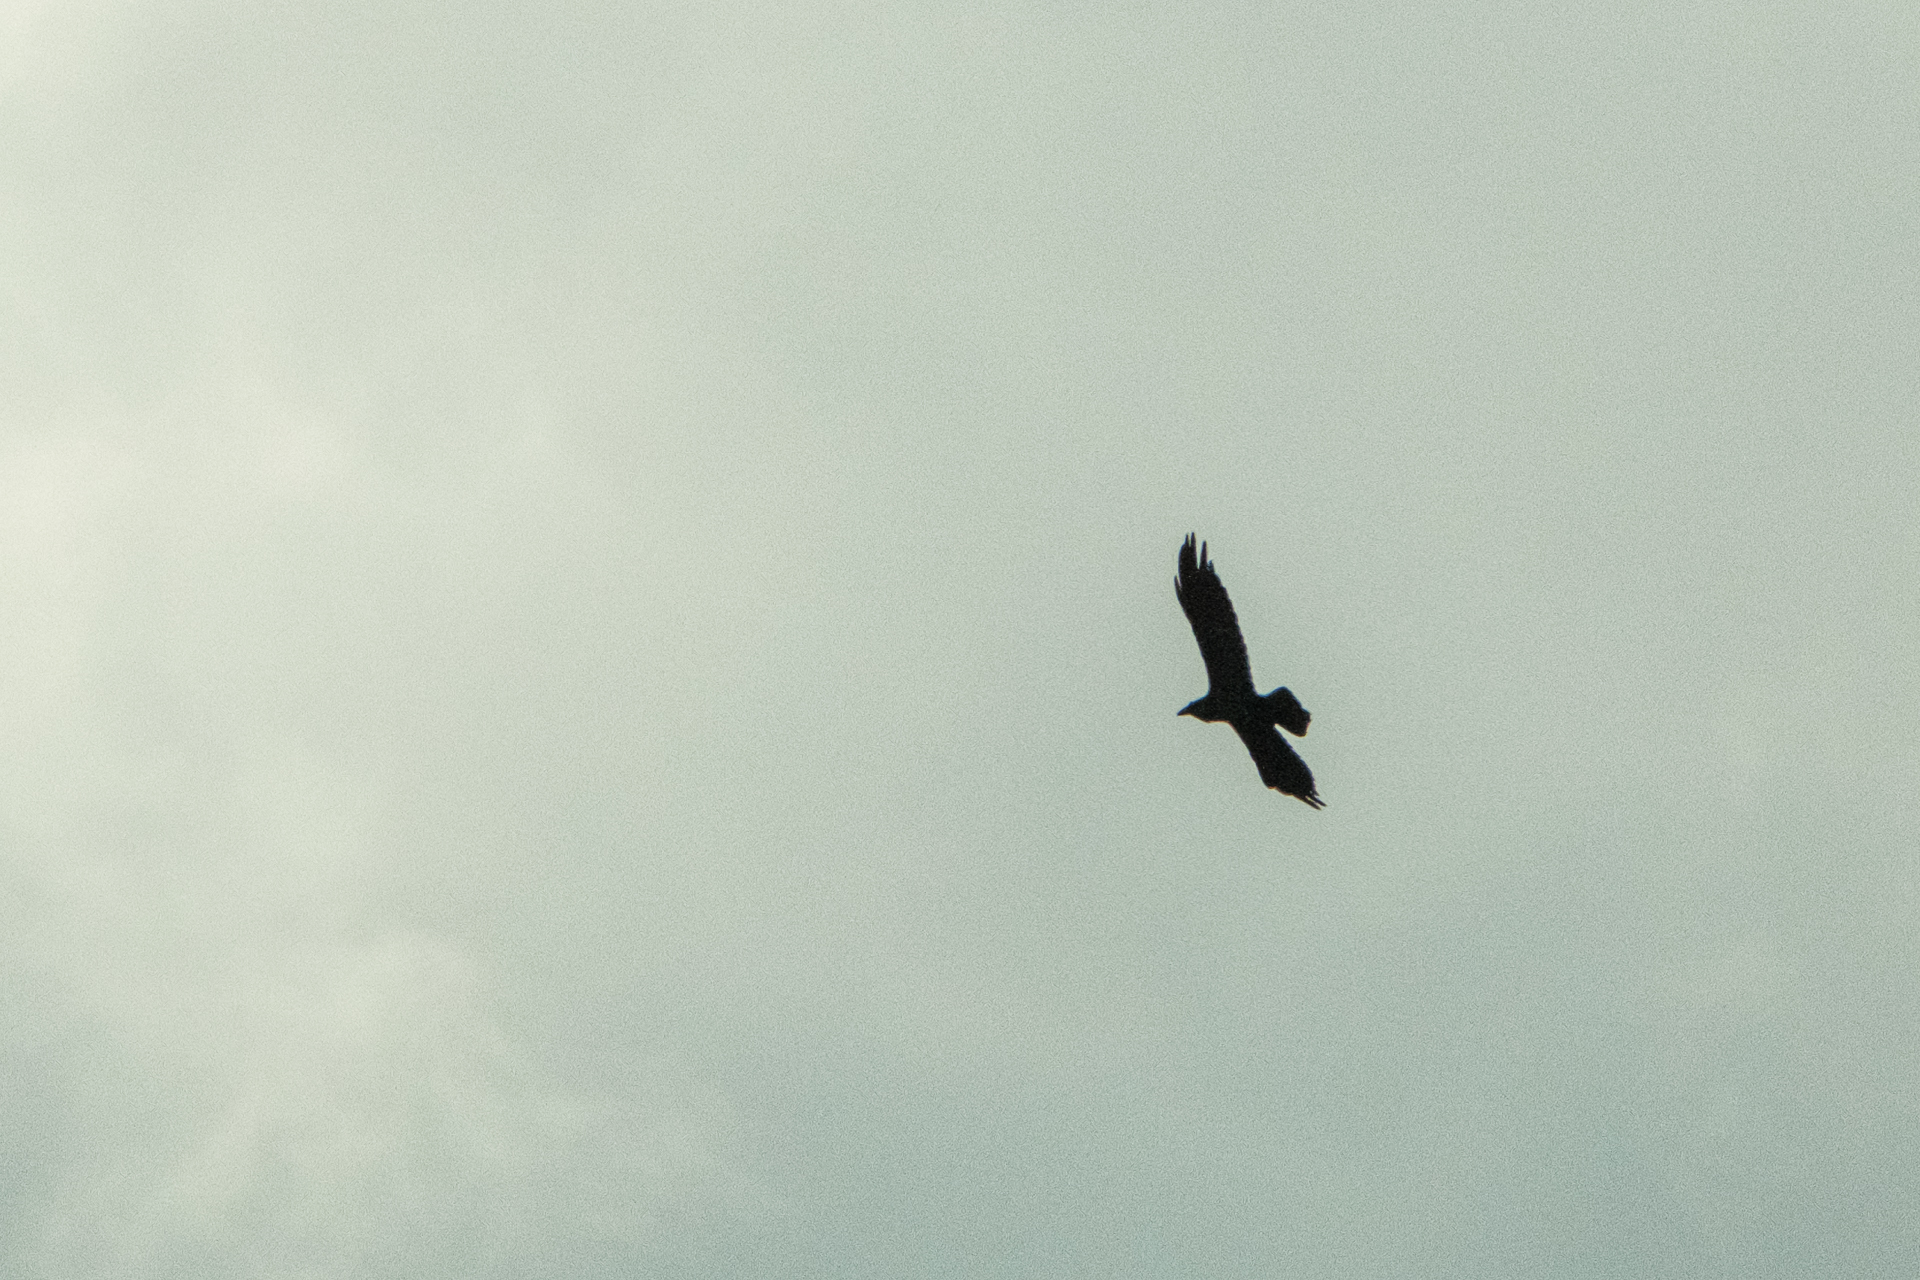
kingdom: Animalia
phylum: Chordata
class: Aves
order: Passeriformes
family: Corvidae
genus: Corvus
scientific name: Corvus corax
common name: Common raven
